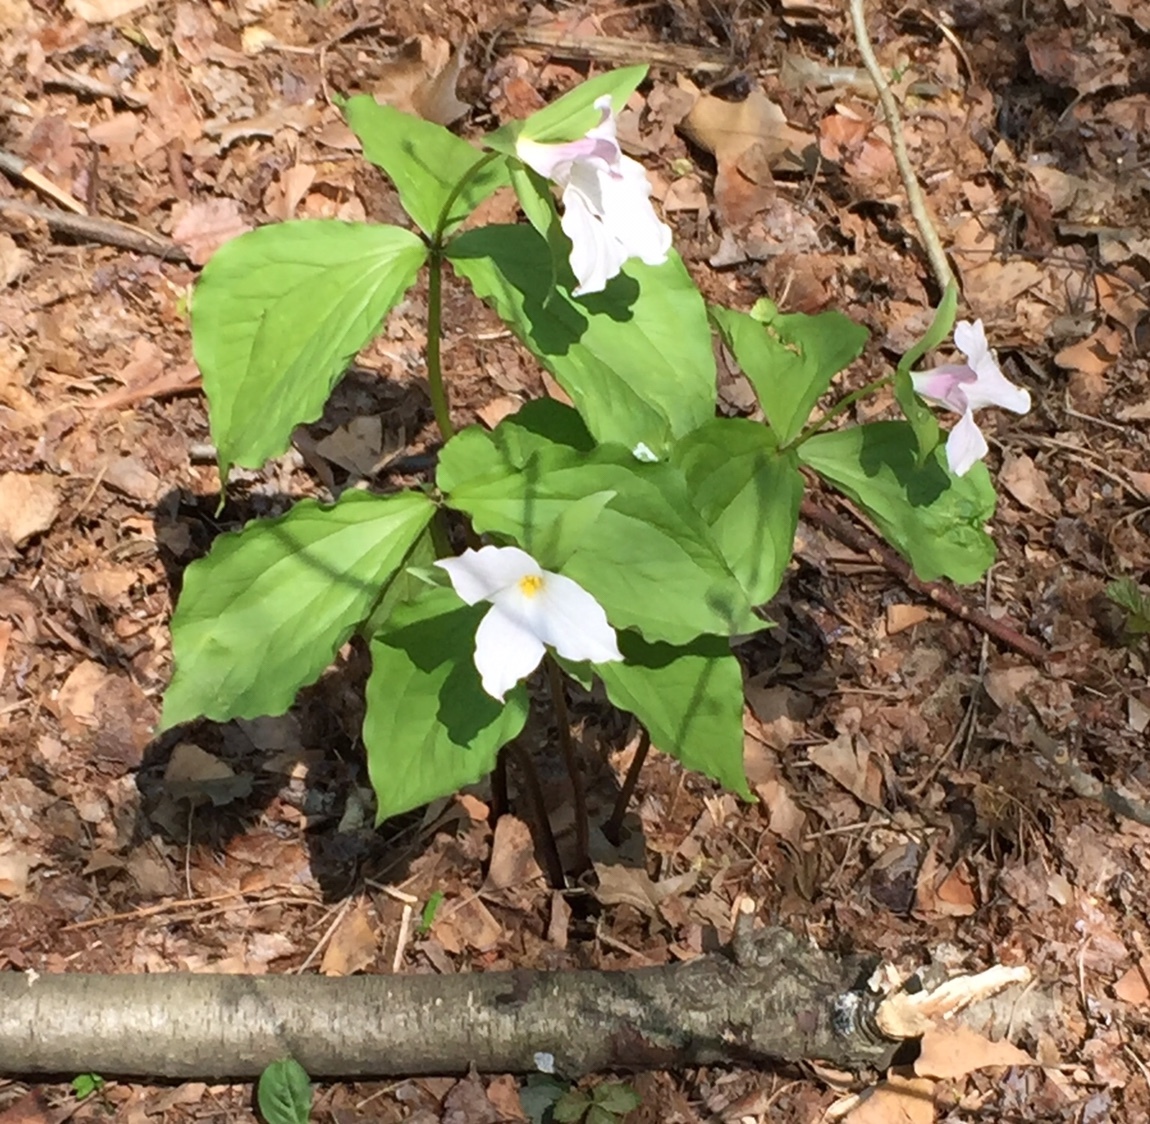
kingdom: Plantae
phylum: Tracheophyta
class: Liliopsida
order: Liliales
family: Melanthiaceae
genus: Trillium
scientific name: Trillium grandiflorum
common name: Great white trillium
